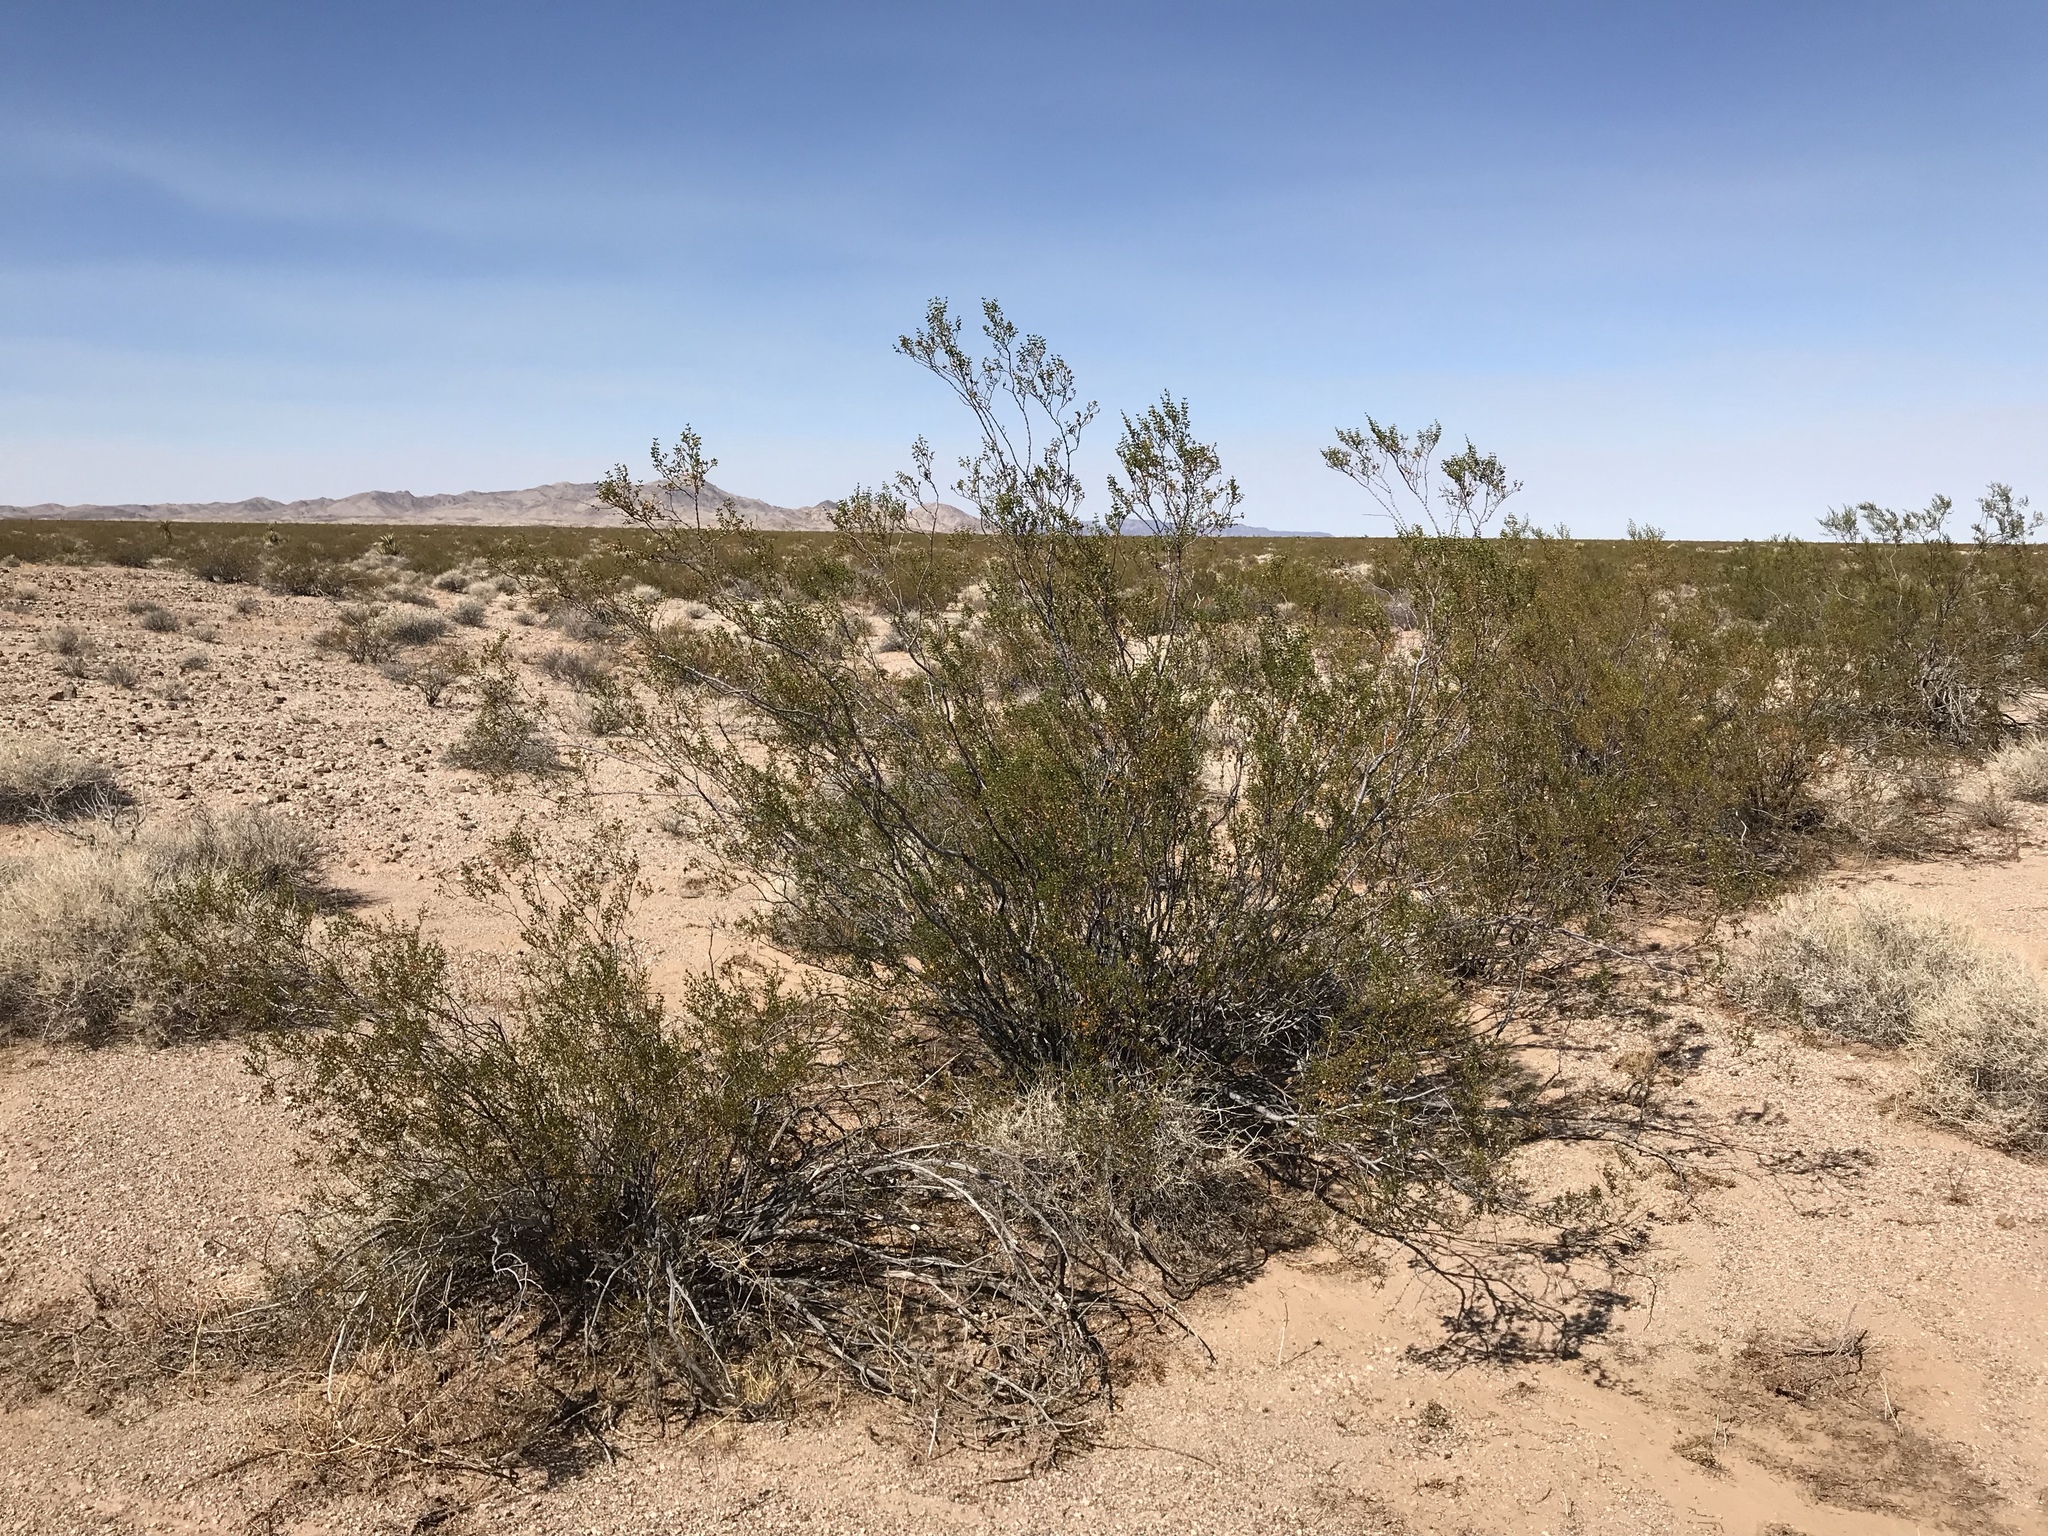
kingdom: Plantae
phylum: Tracheophyta
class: Magnoliopsida
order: Zygophyllales
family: Zygophyllaceae
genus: Larrea
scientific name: Larrea tridentata
